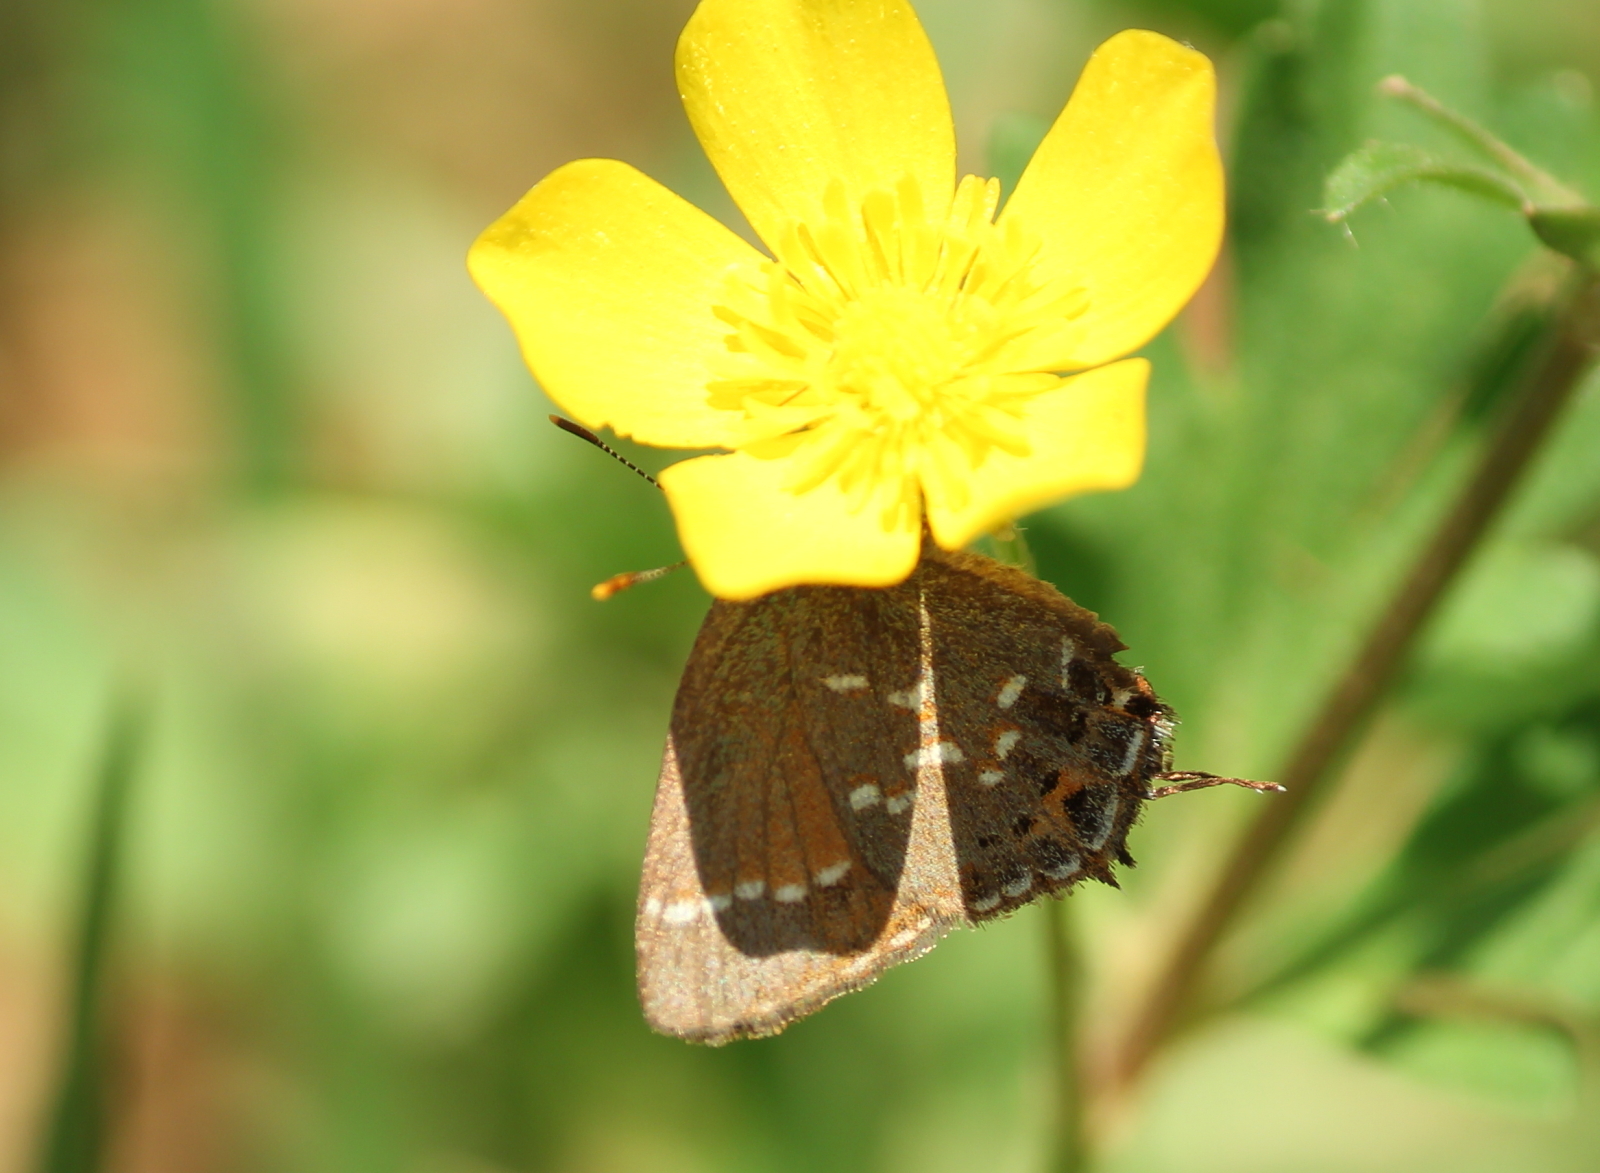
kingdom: Animalia
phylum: Arthropoda
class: Insecta
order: Lepidoptera
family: Lycaenidae
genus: Mitoura
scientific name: Mitoura gryneus
